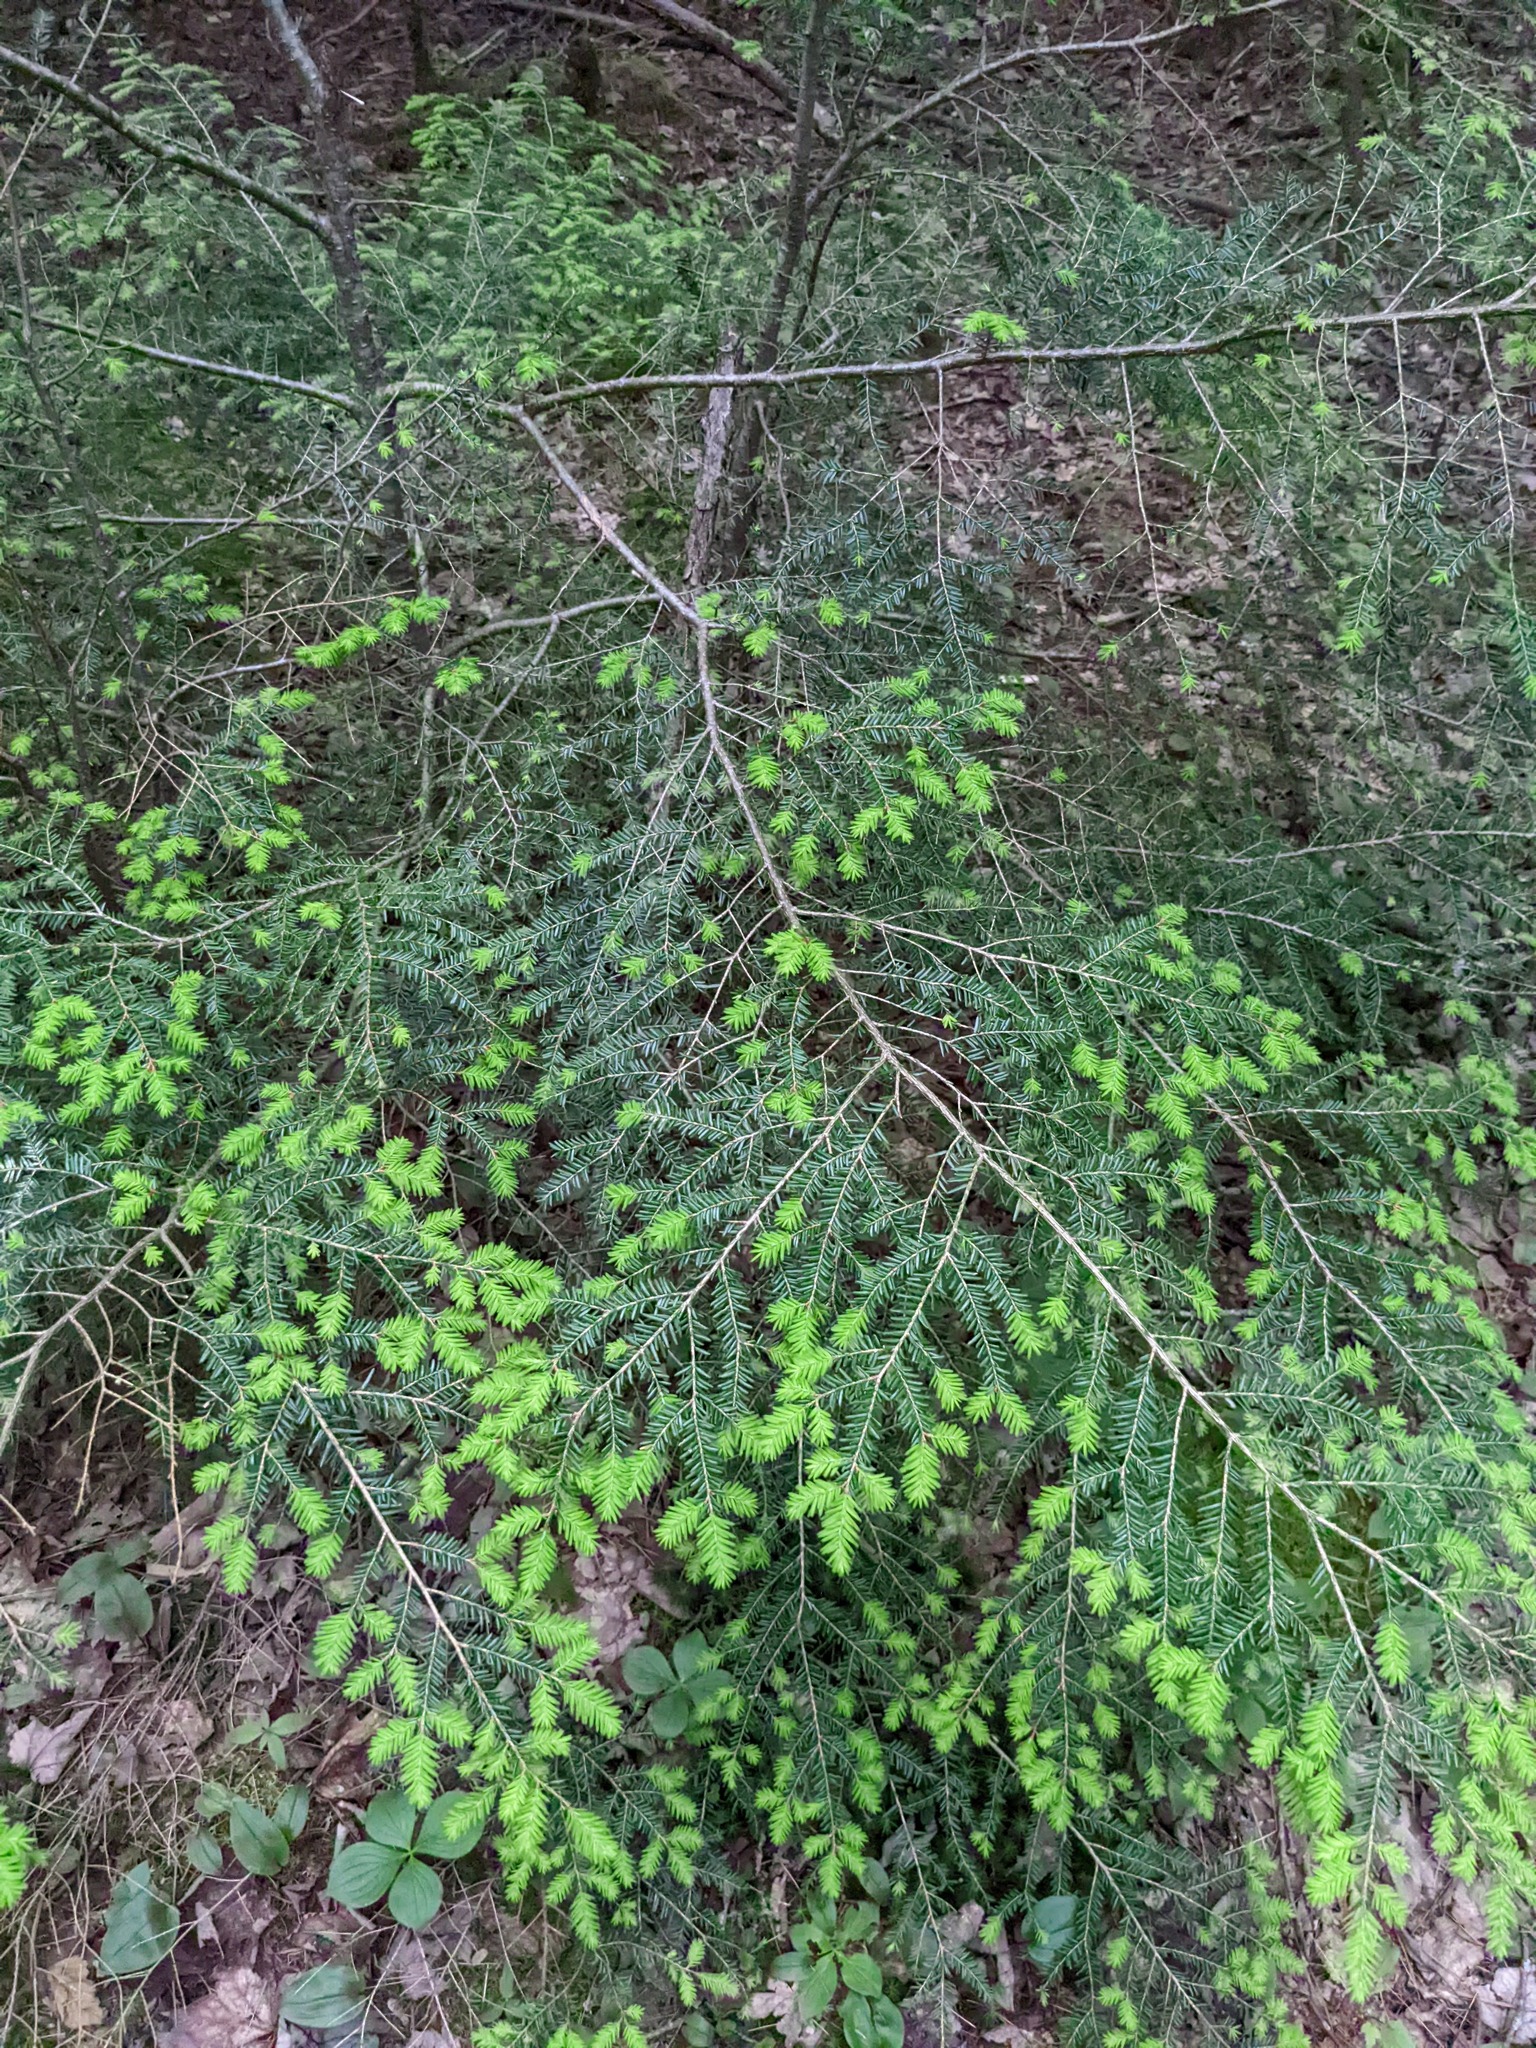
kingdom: Plantae
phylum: Tracheophyta
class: Pinopsida
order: Pinales
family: Pinaceae
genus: Tsuga
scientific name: Tsuga canadensis
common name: Eastern hemlock
